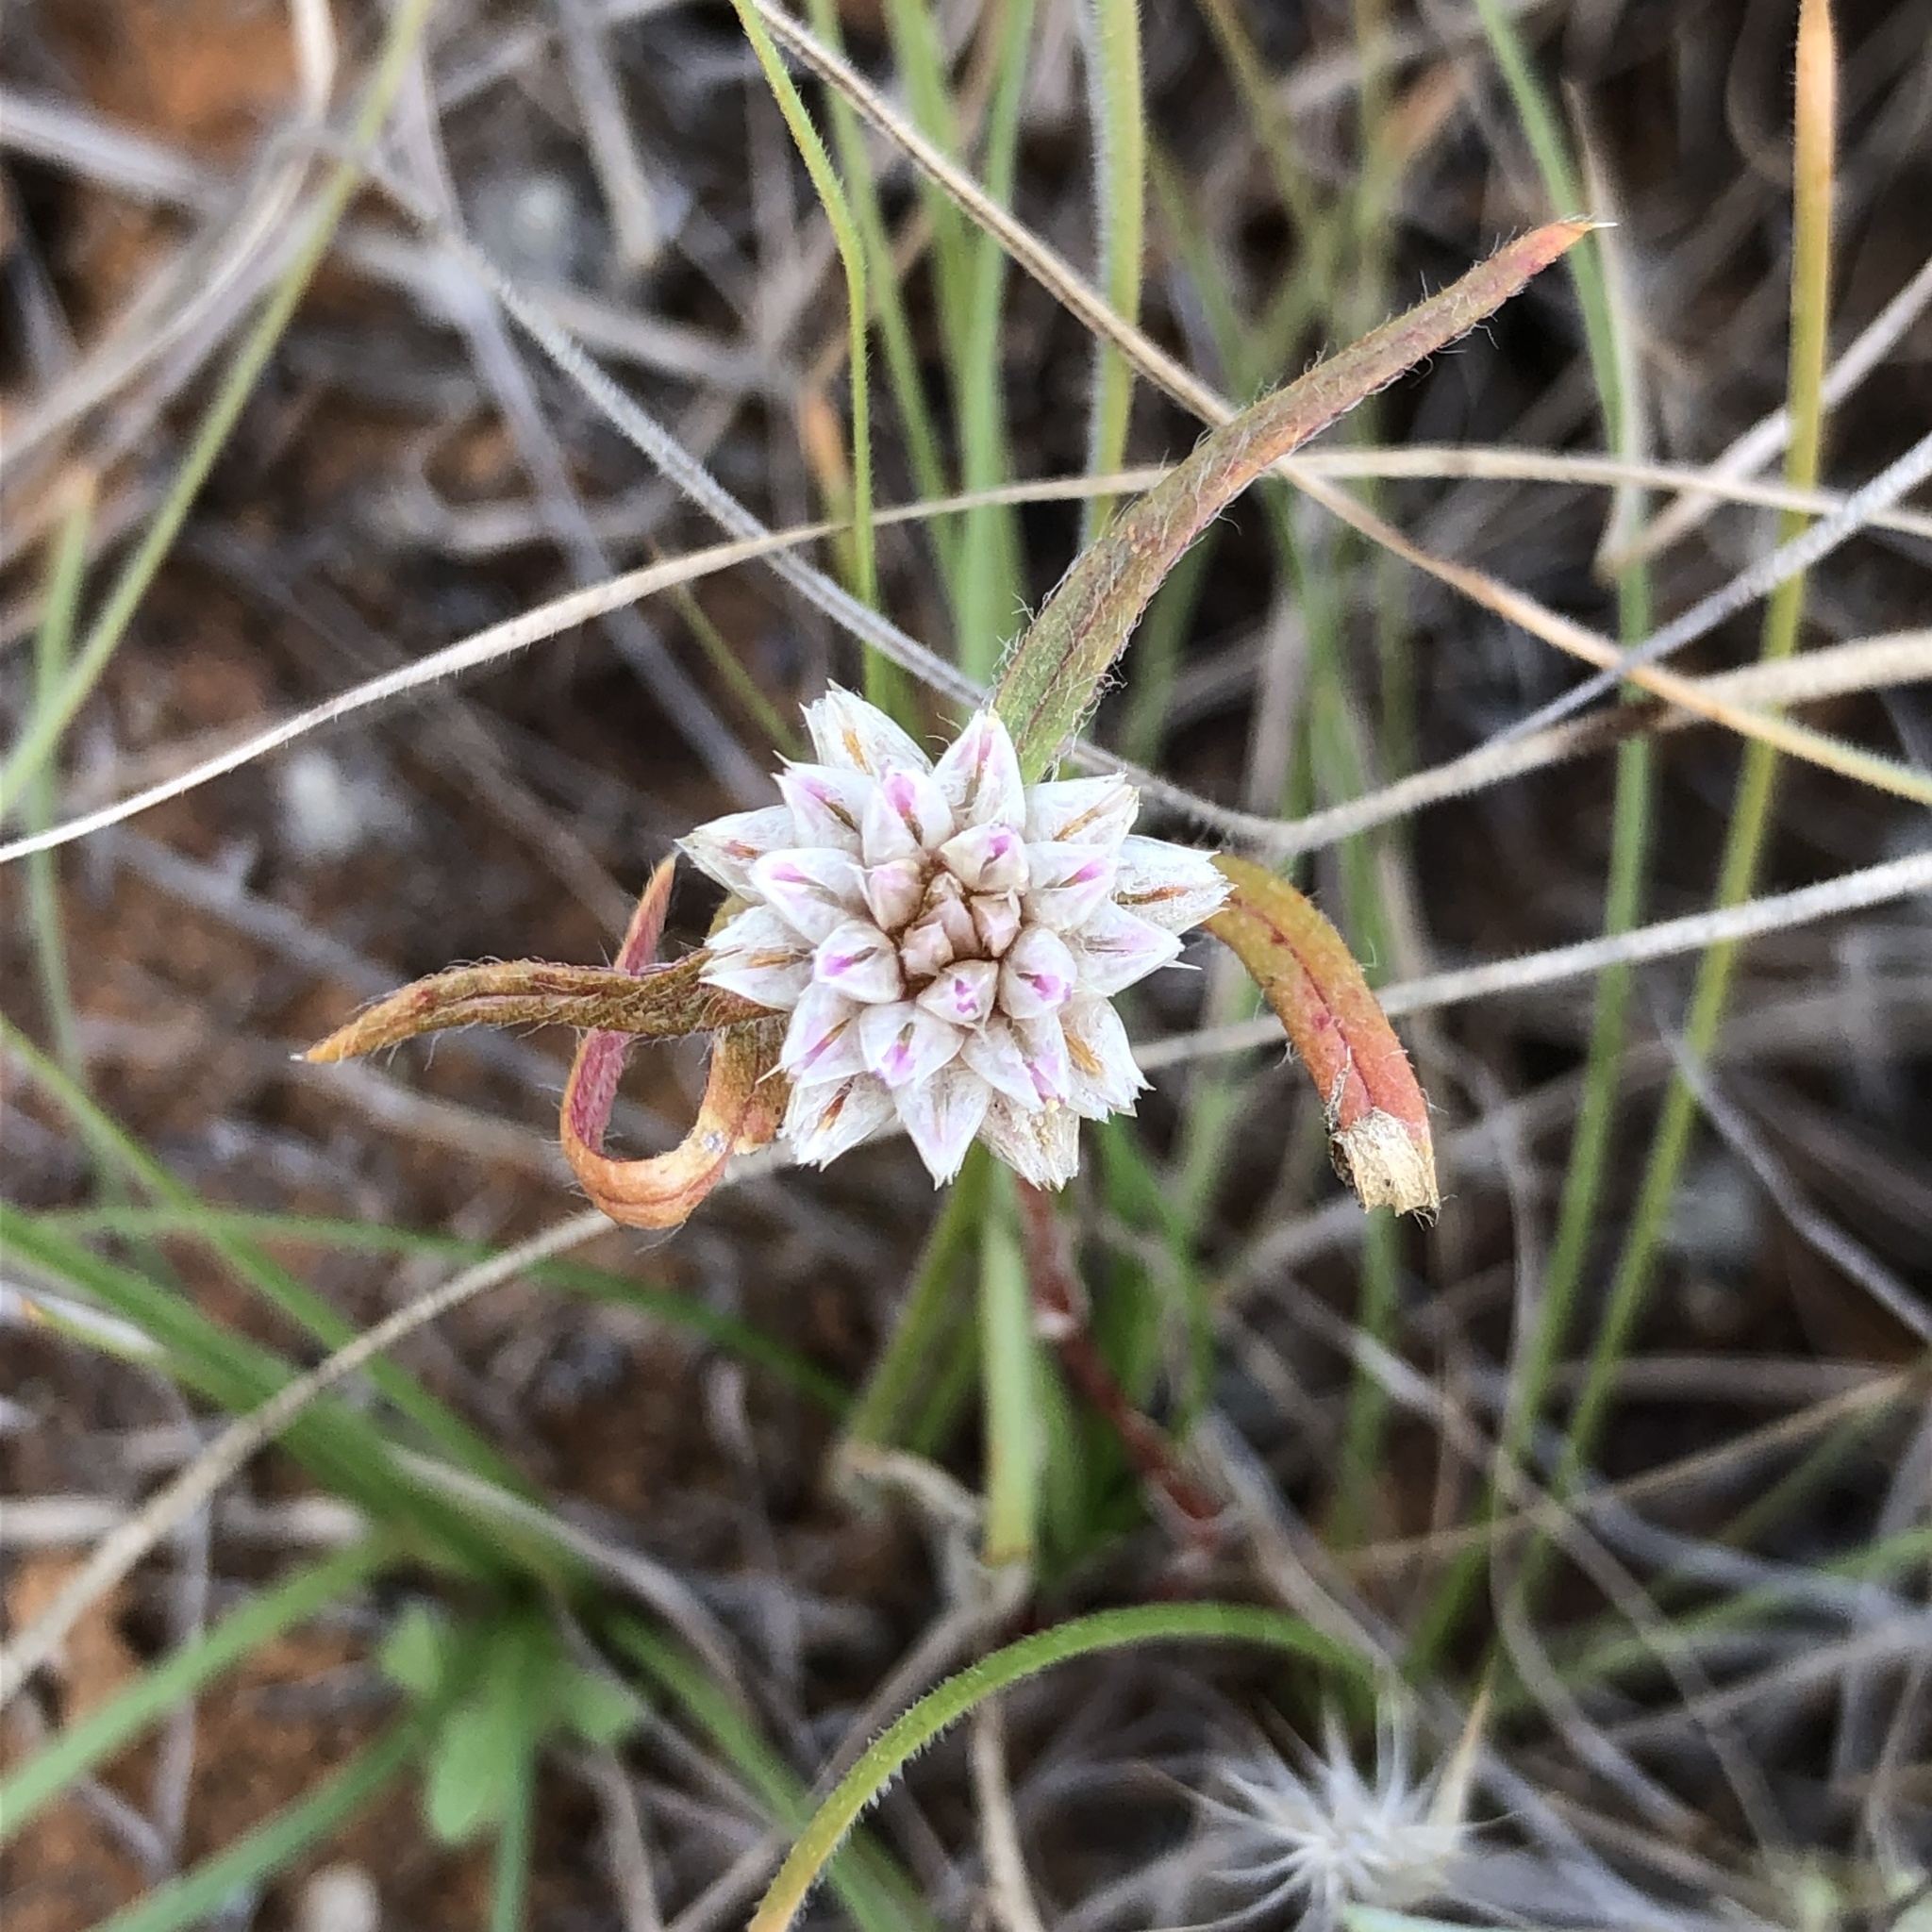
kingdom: Plantae
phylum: Tracheophyta
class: Magnoliopsida
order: Caryophyllales
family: Amaranthaceae
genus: Gomphrena
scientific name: Gomphrena lanata
